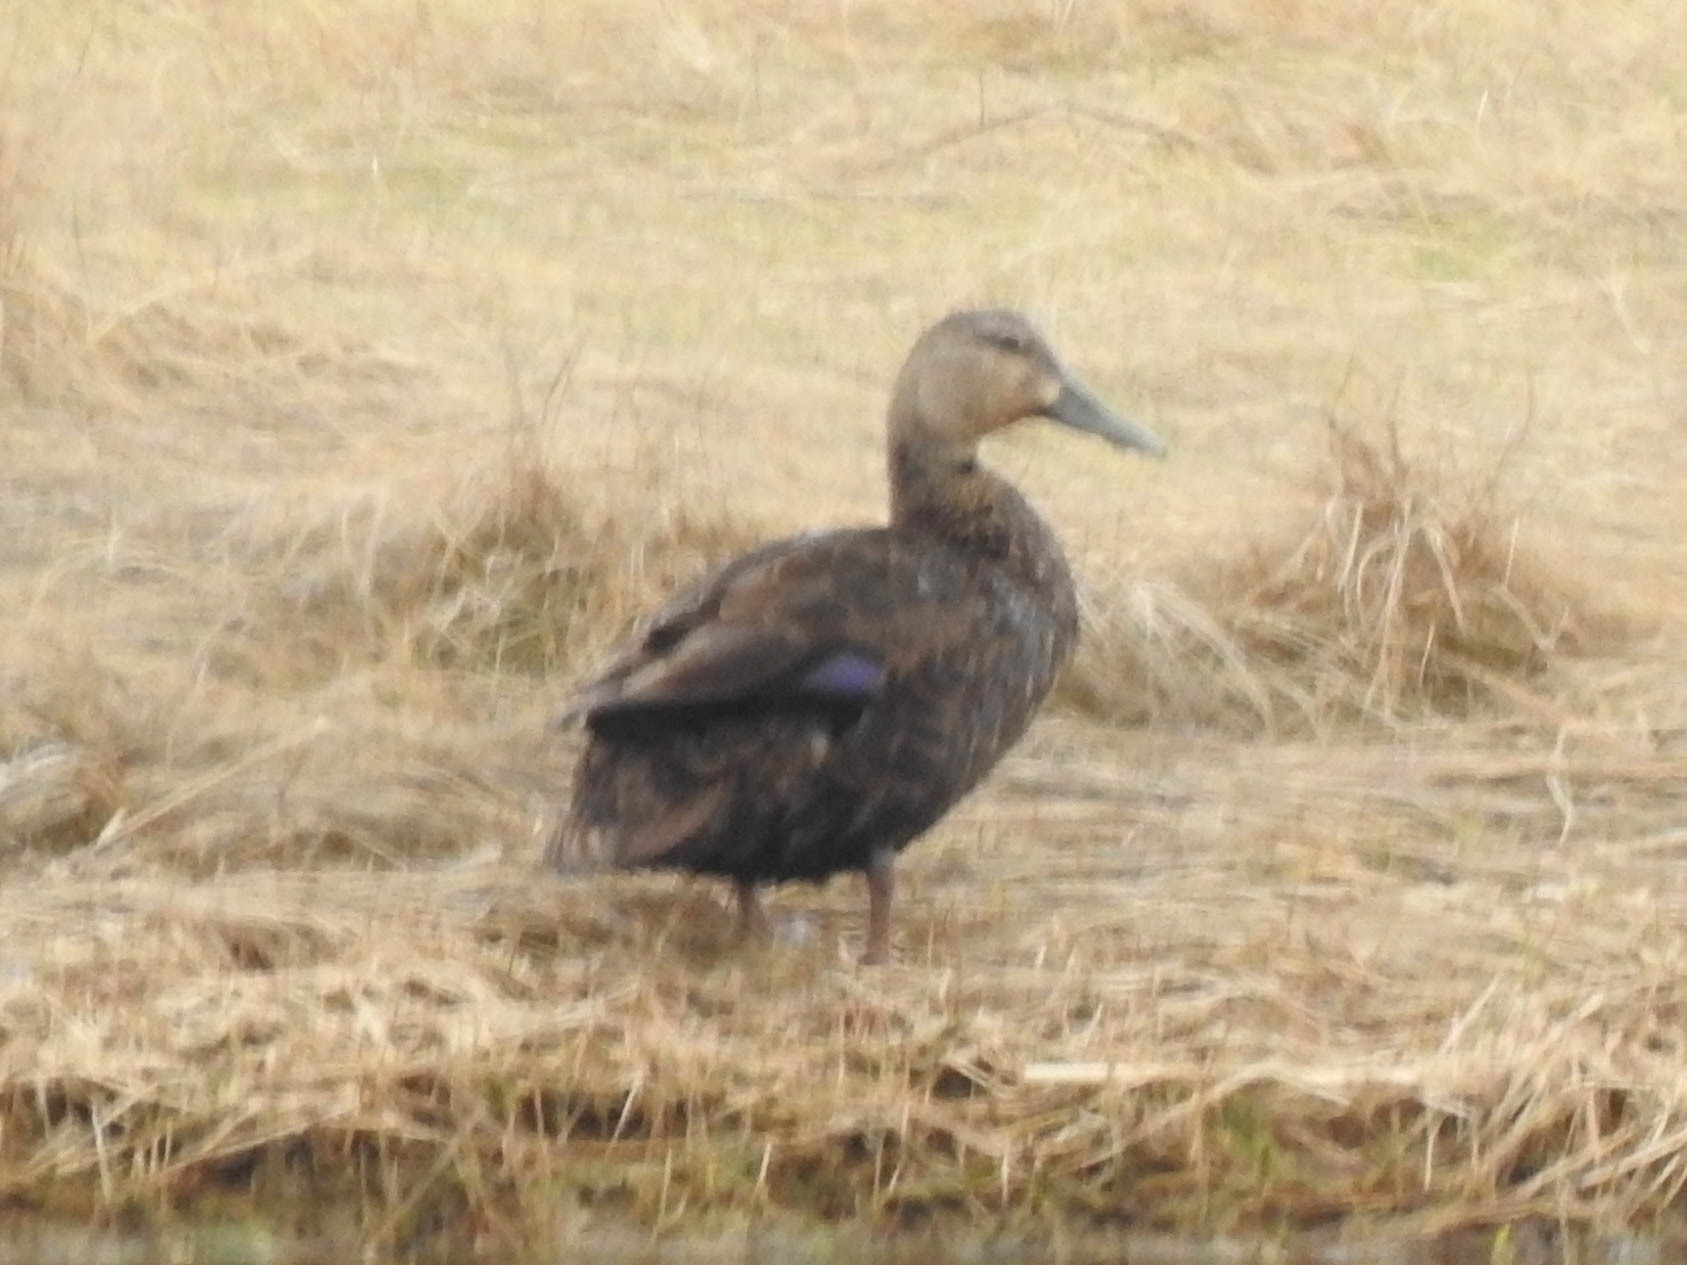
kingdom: Animalia
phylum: Chordata
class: Aves
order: Anseriformes
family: Anatidae
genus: Anas
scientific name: Anas rubripes
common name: American black duck
